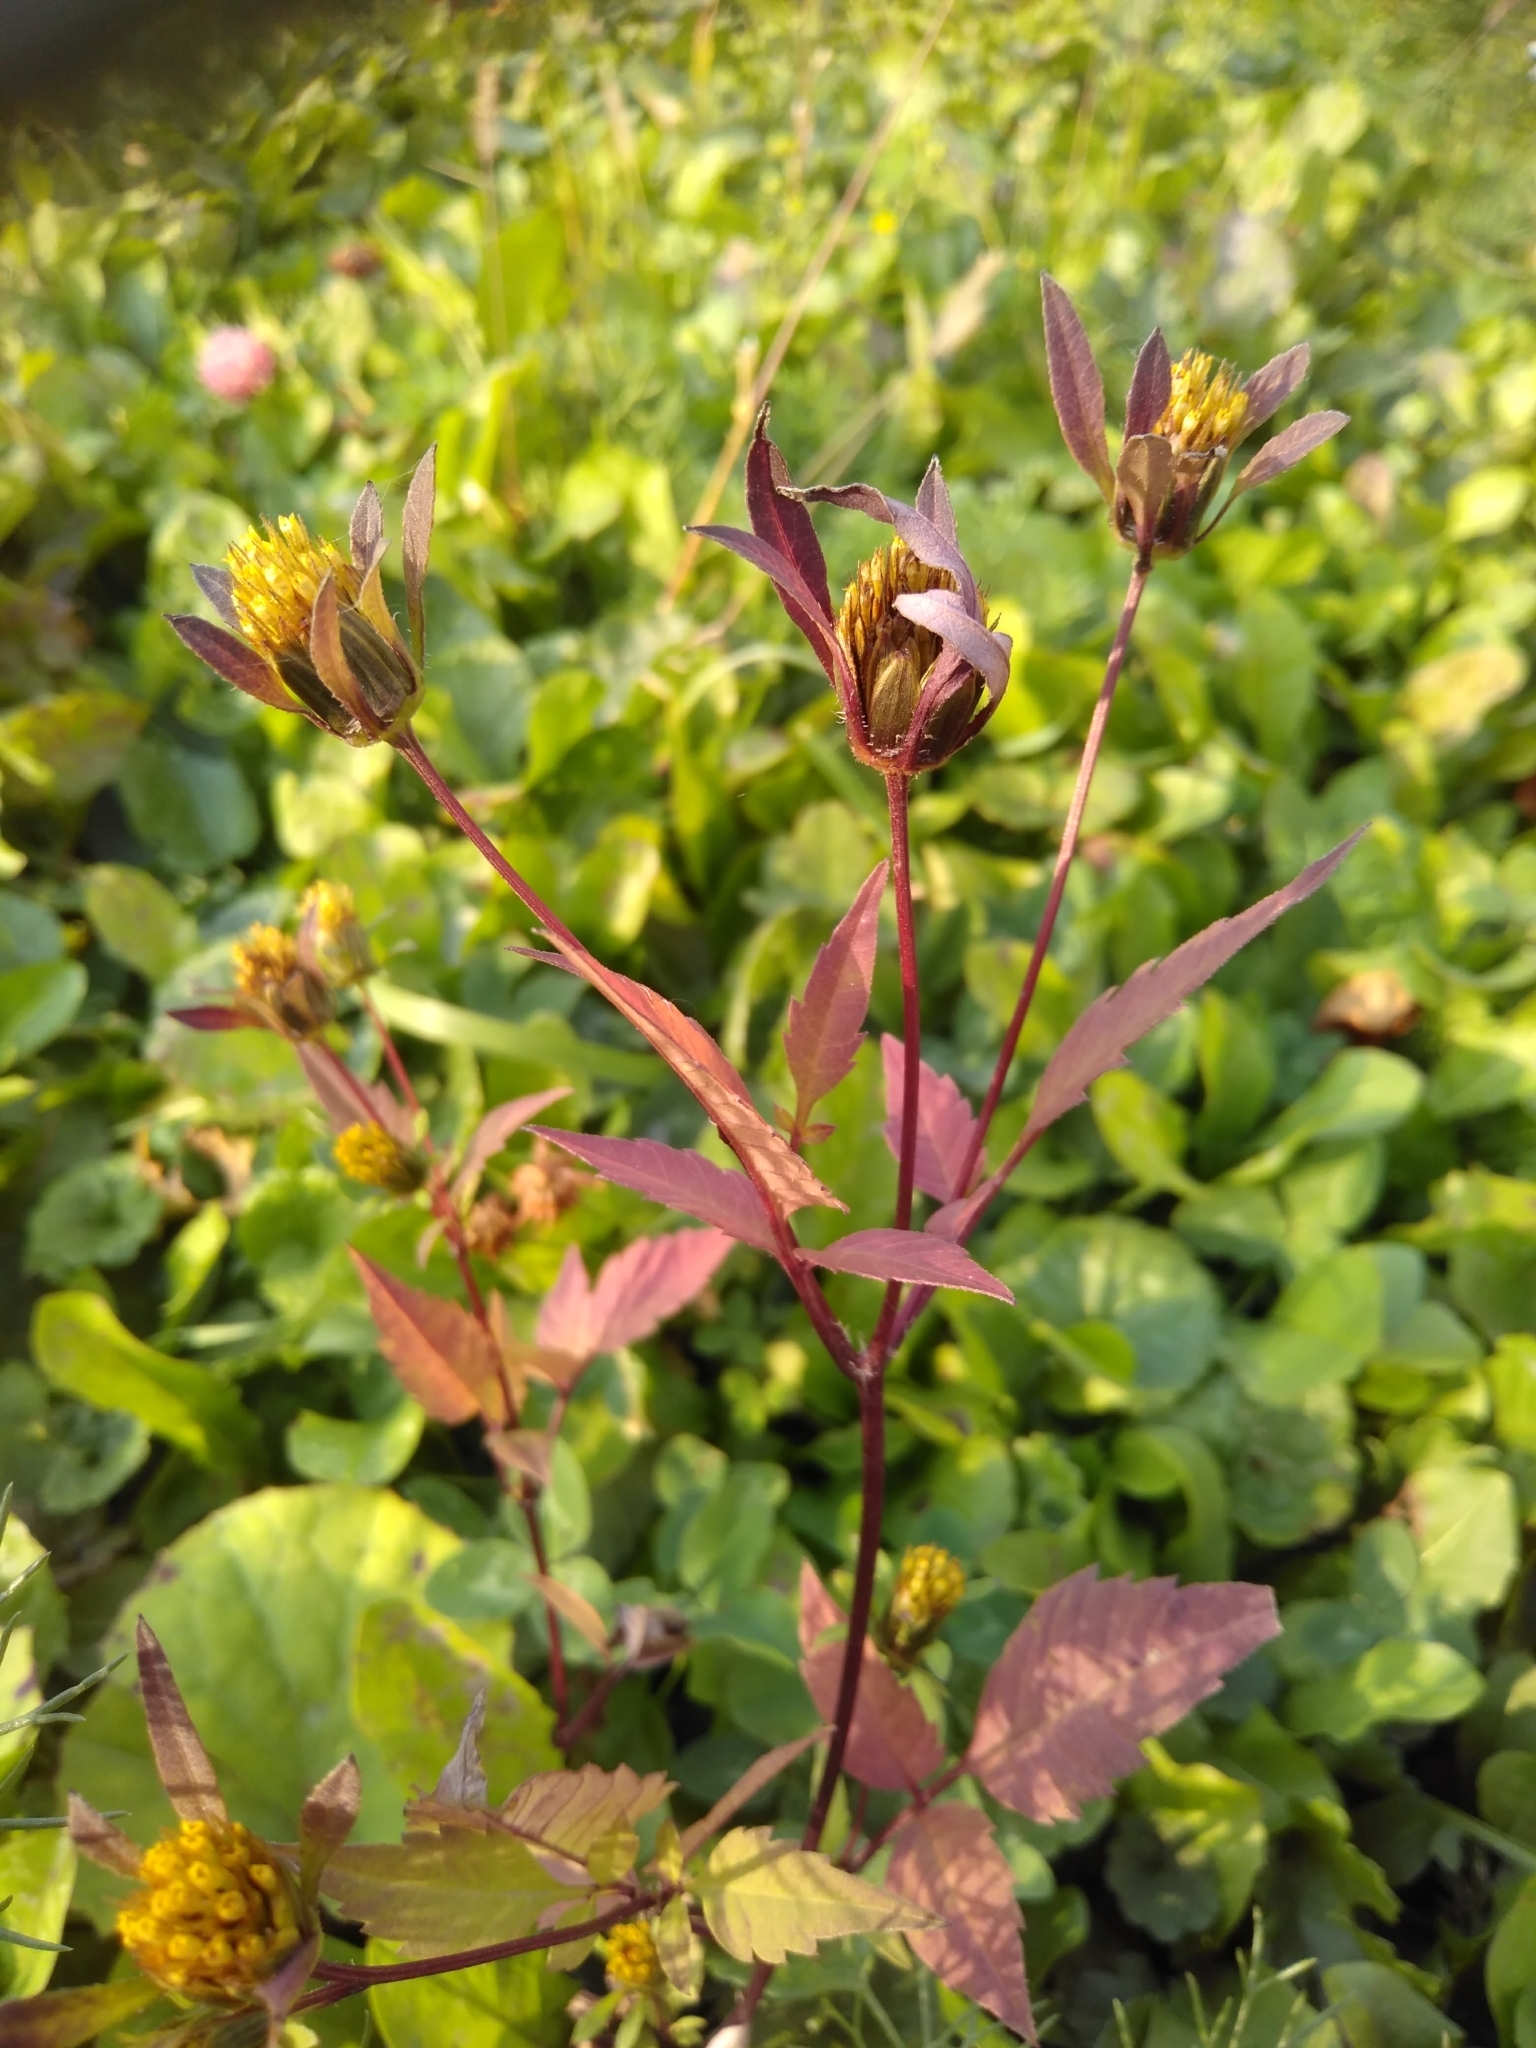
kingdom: Plantae
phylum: Tracheophyta
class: Magnoliopsida
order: Asterales
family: Asteraceae
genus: Bidens
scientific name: Bidens frondosa
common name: Beggarticks
